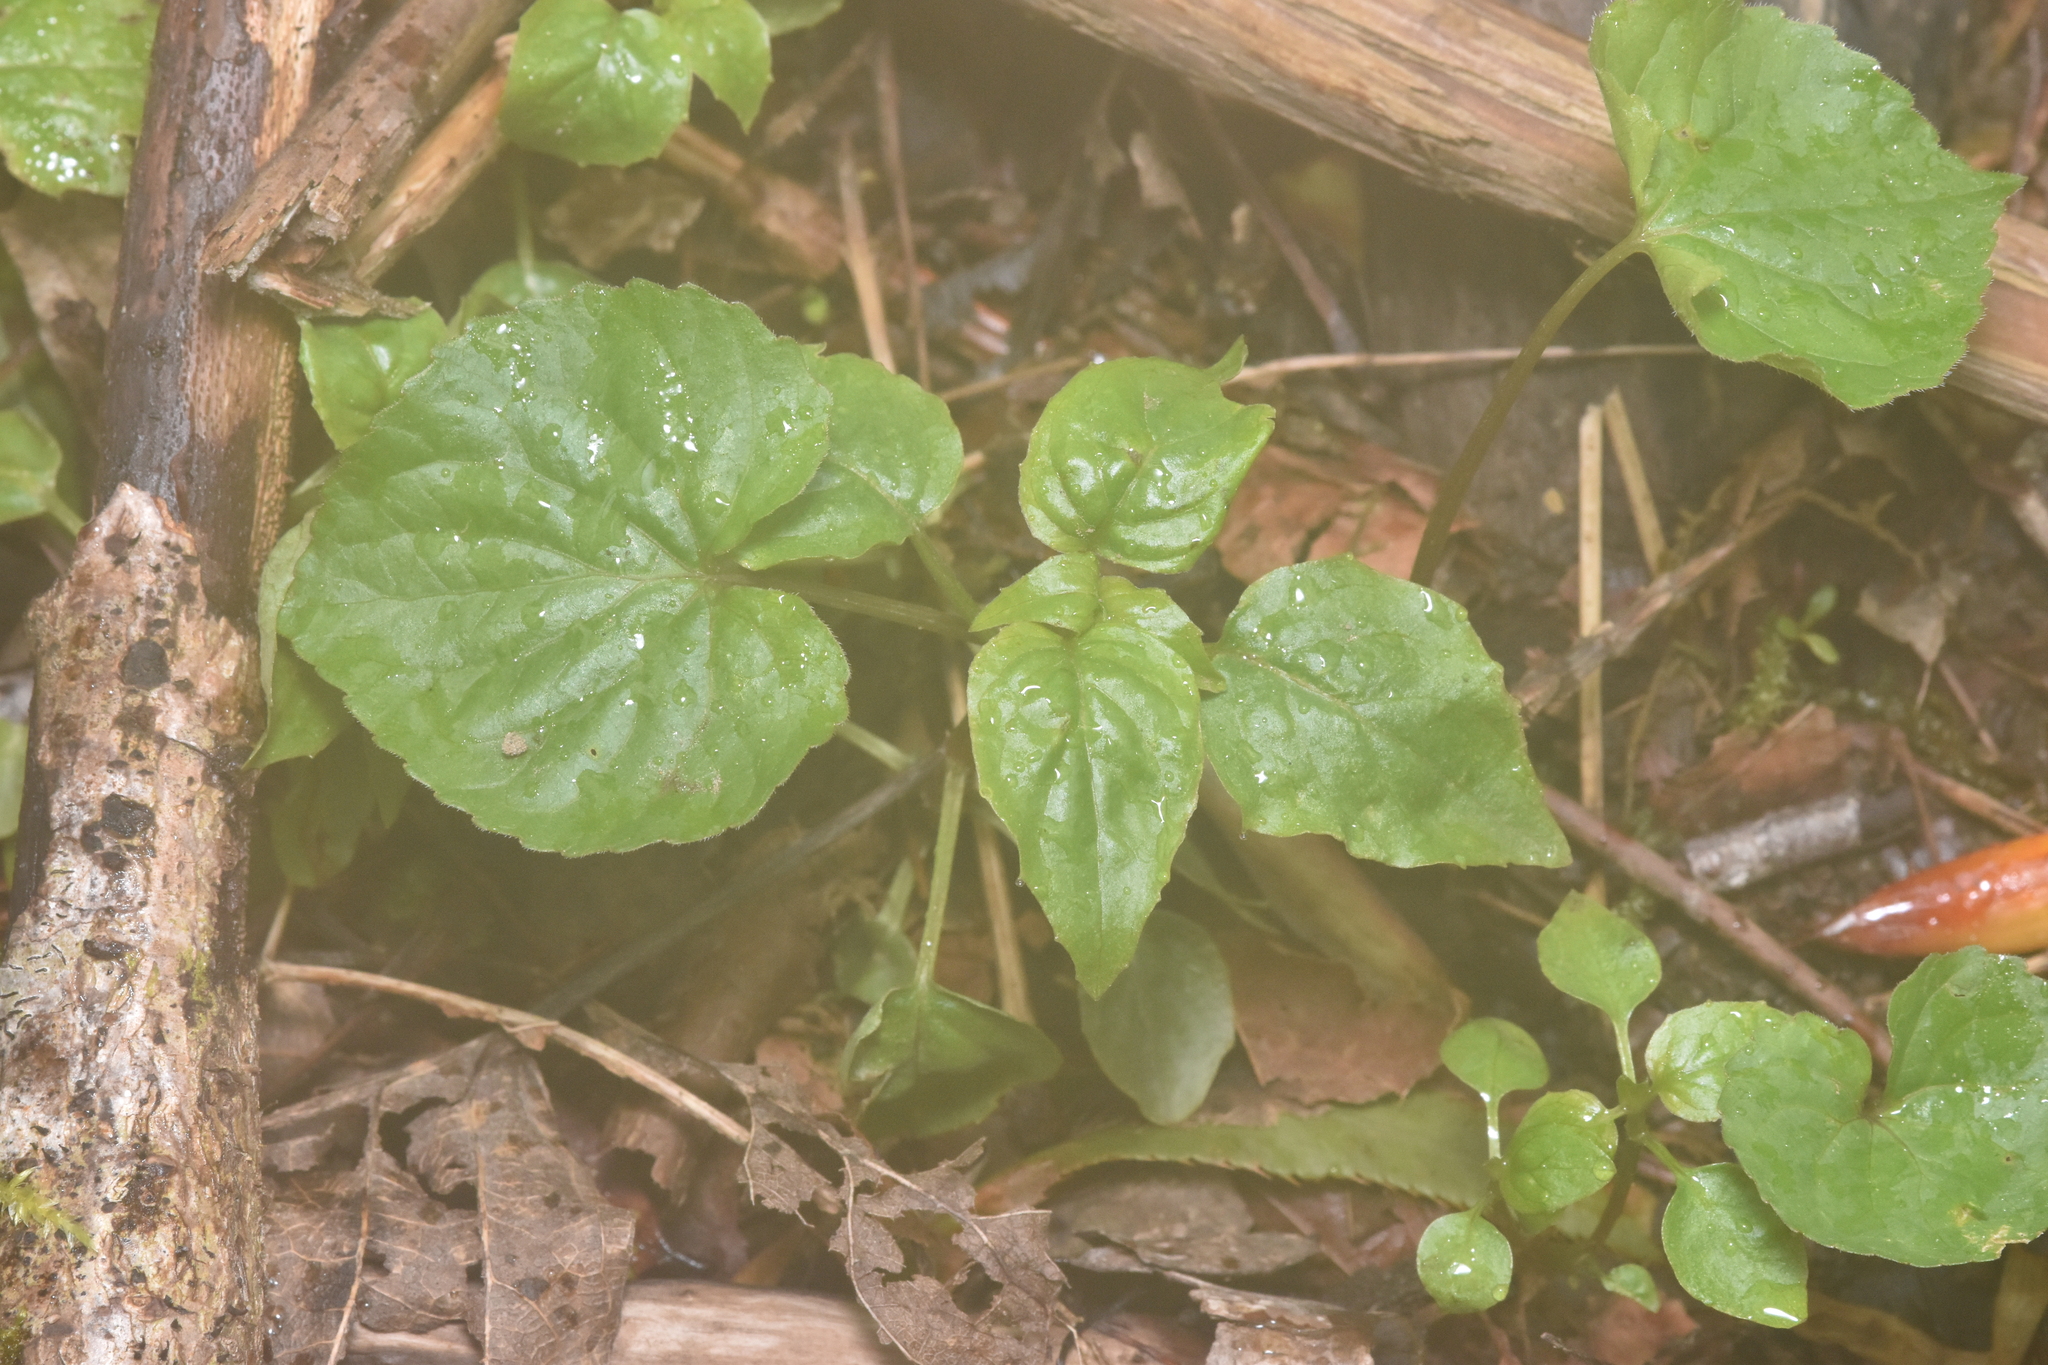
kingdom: Plantae
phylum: Tracheophyta
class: Magnoliopsida
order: Myrtales
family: Onagraceae
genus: Circaea
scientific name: Circaea alpina
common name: Alpine enchanter's-nightshade
